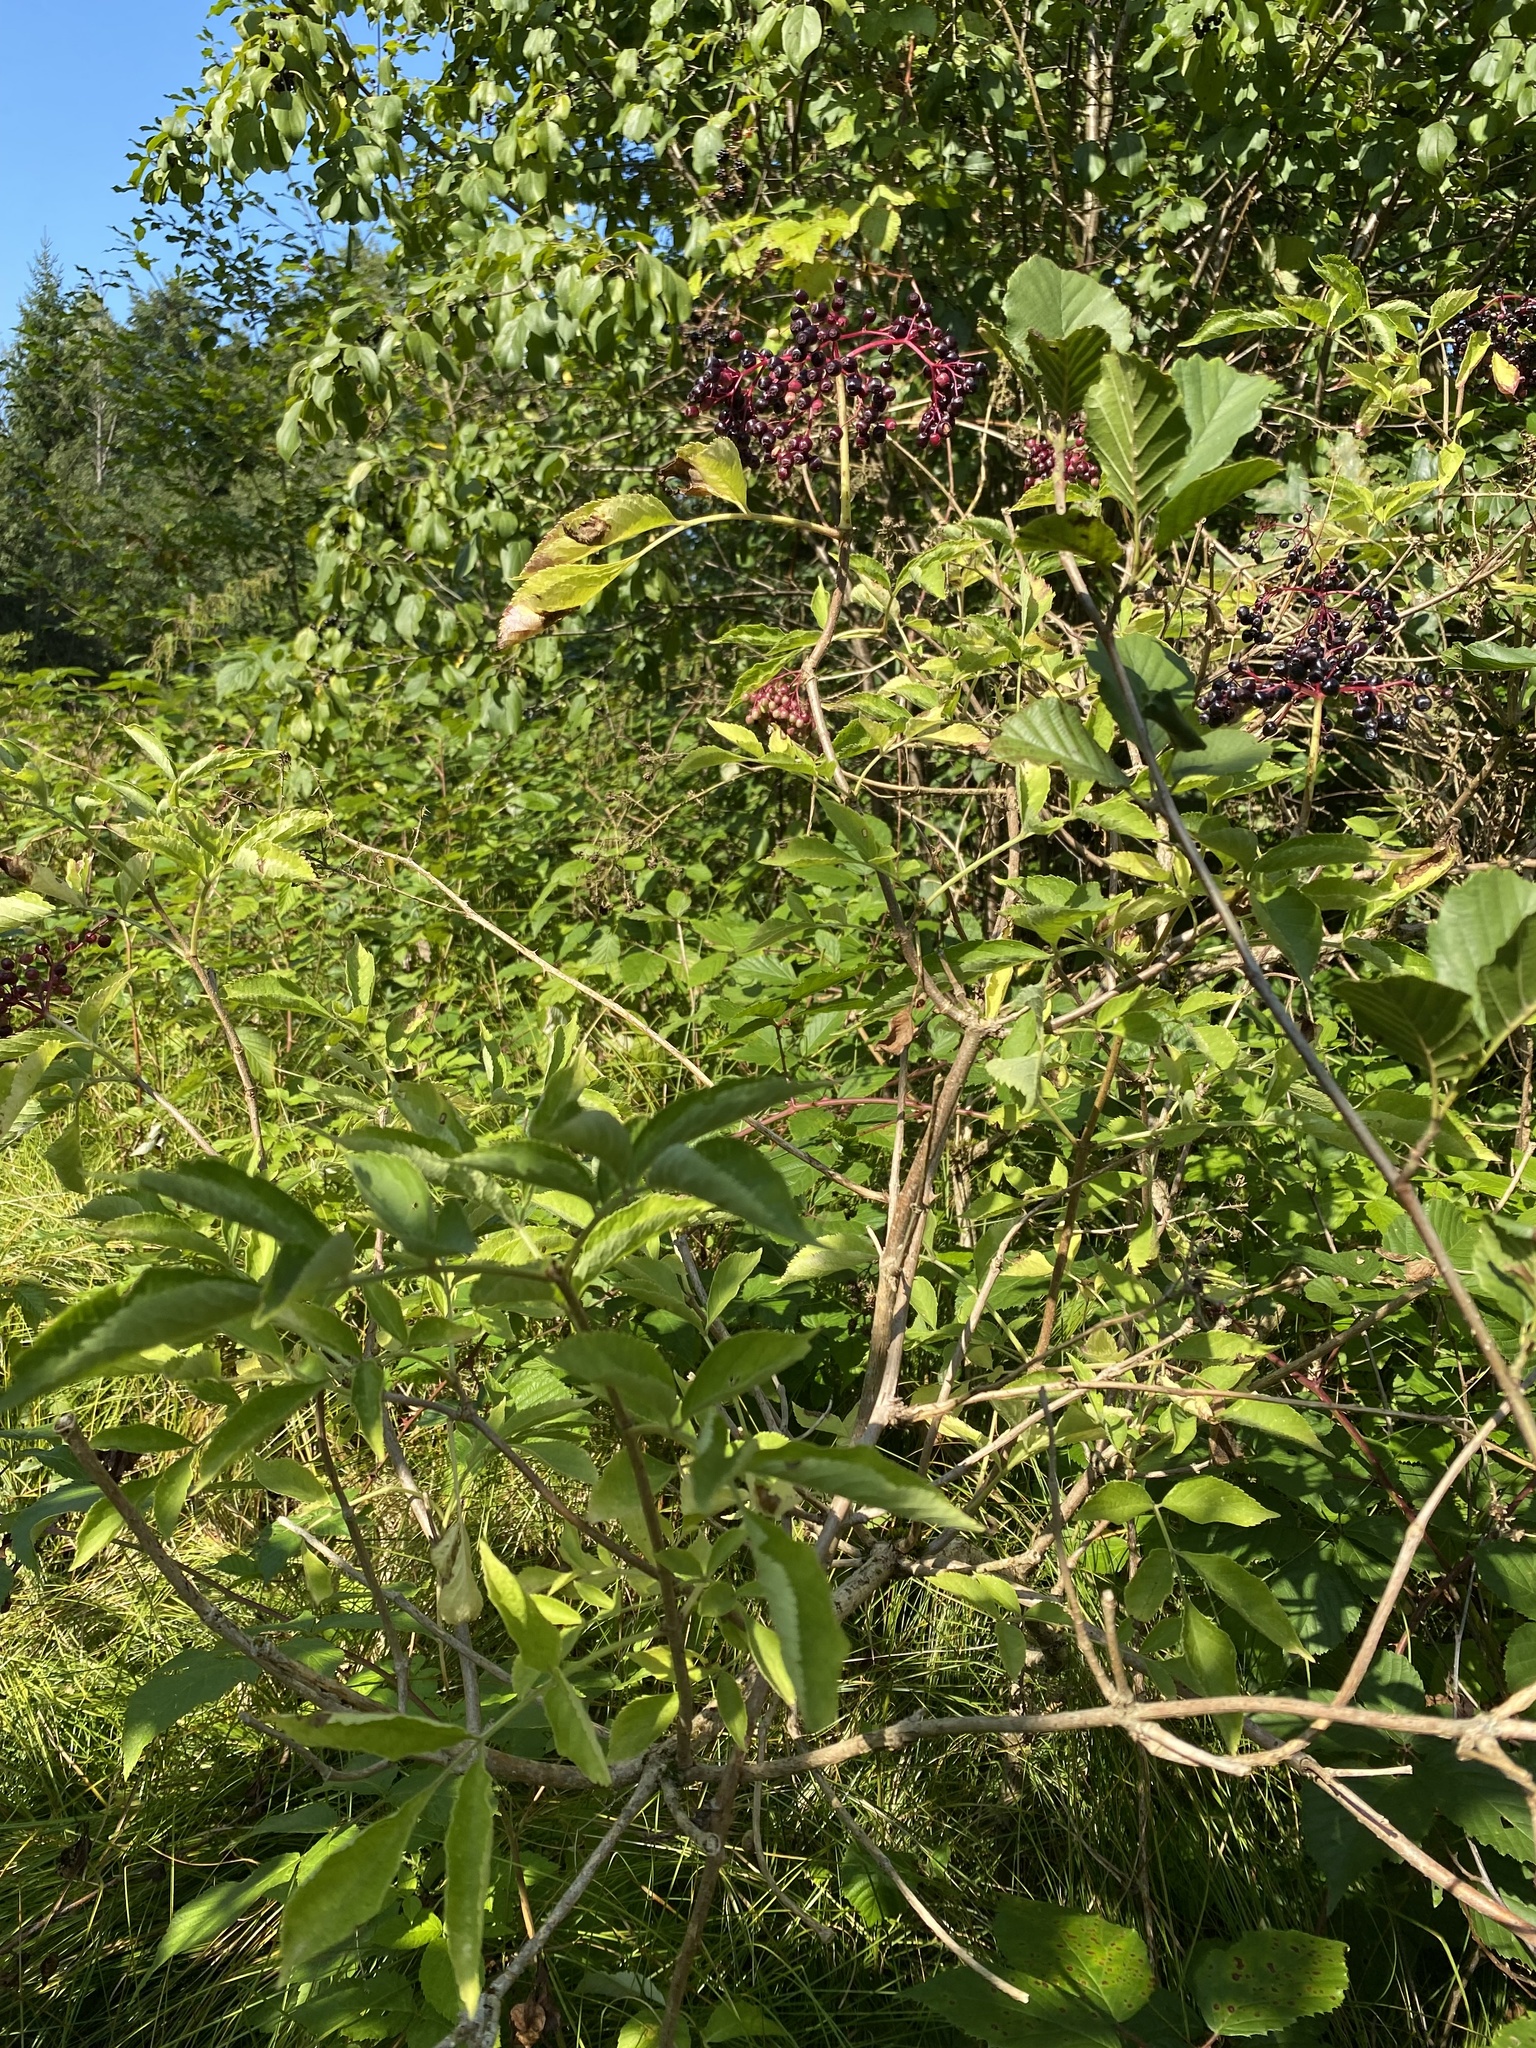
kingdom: Plantae
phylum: Tracheophyta
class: Magnoliopsida
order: Dipsacales
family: Viburnaceae
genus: Sambucus
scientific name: Sambucus nigra
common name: Elder
